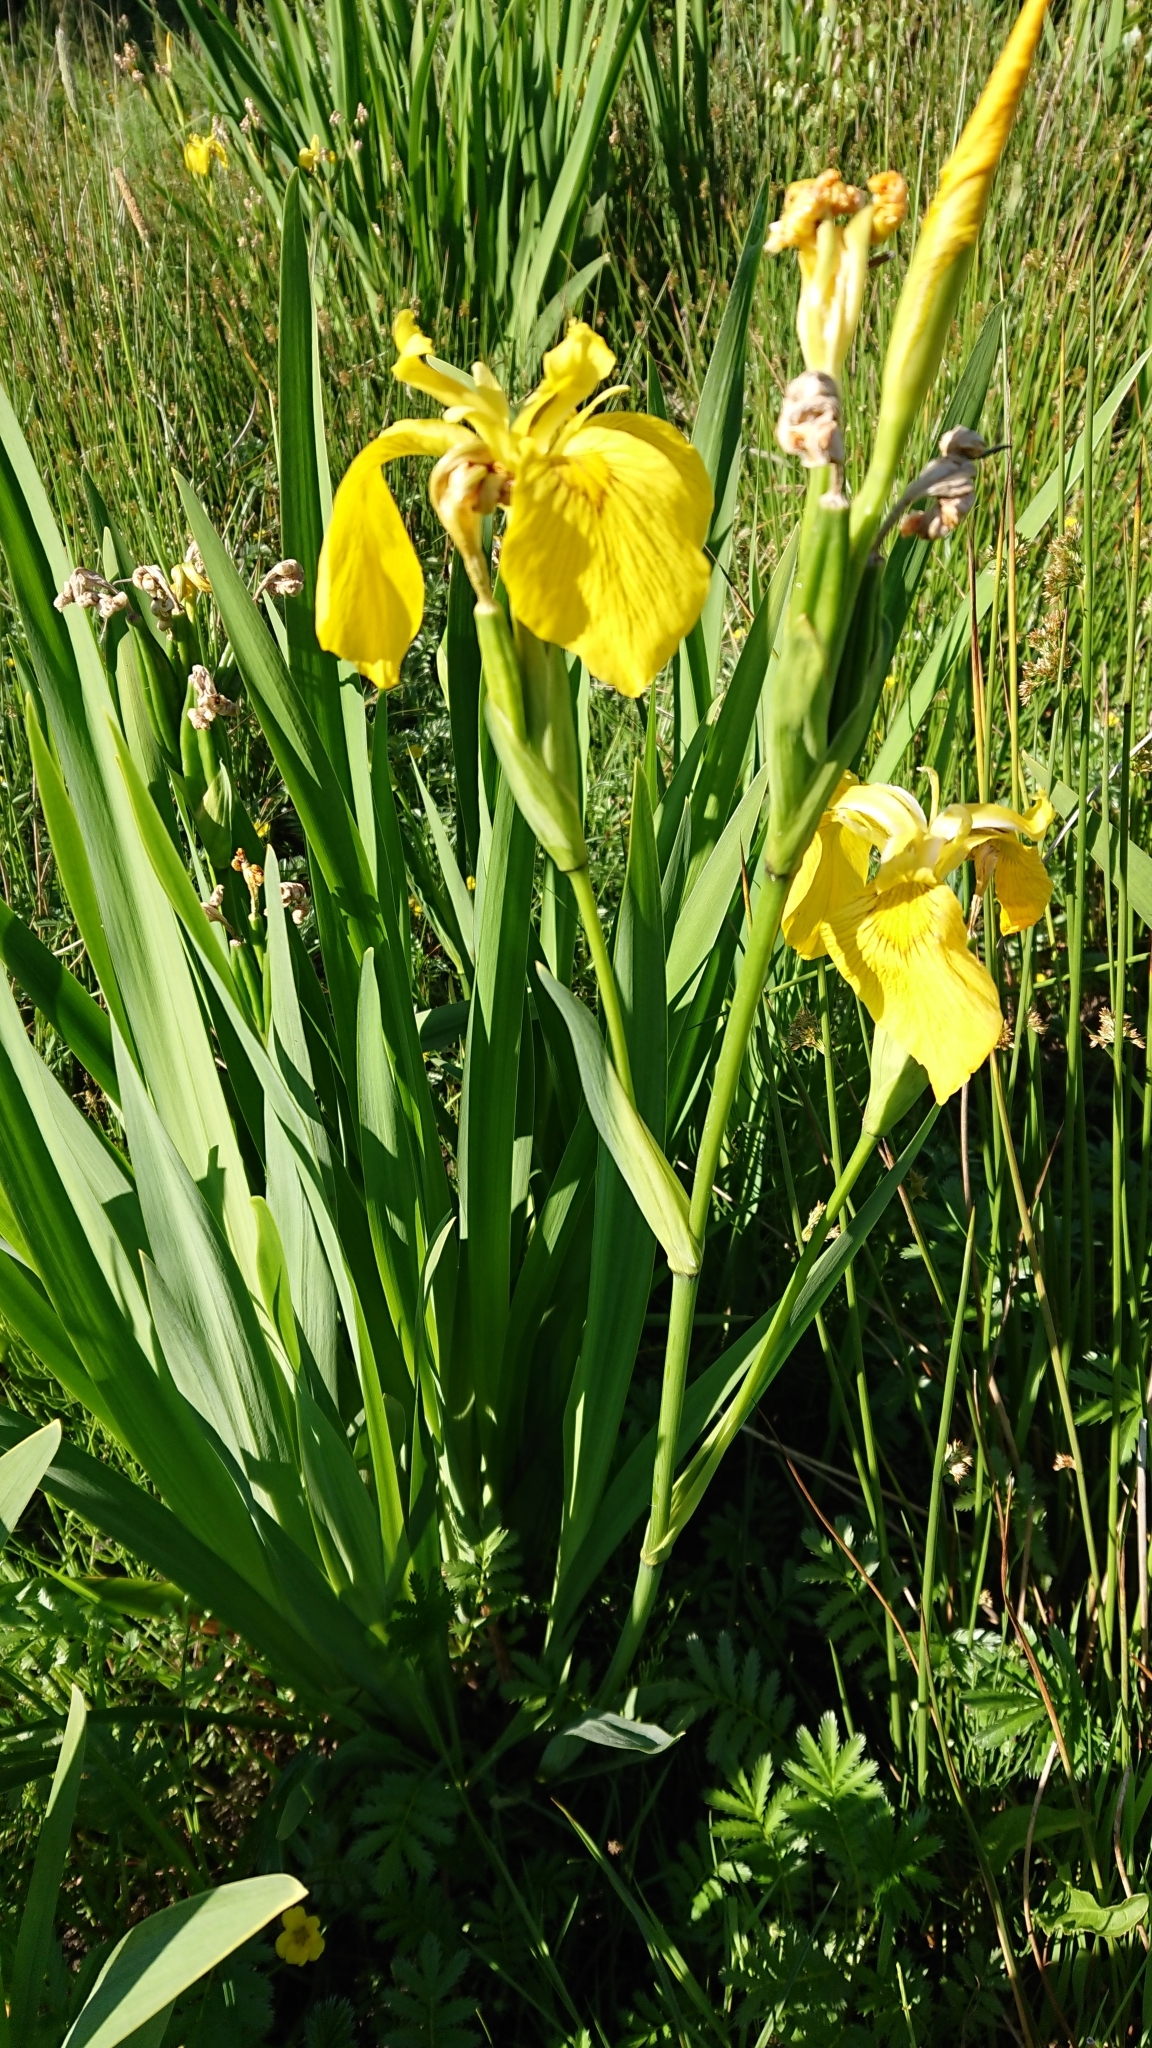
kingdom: Plantae
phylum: Tracheophyta
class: Liliopsida
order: Asparagales
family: Iridaceae
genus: Iris
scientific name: Iris pseudacorus
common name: Yellow flag
